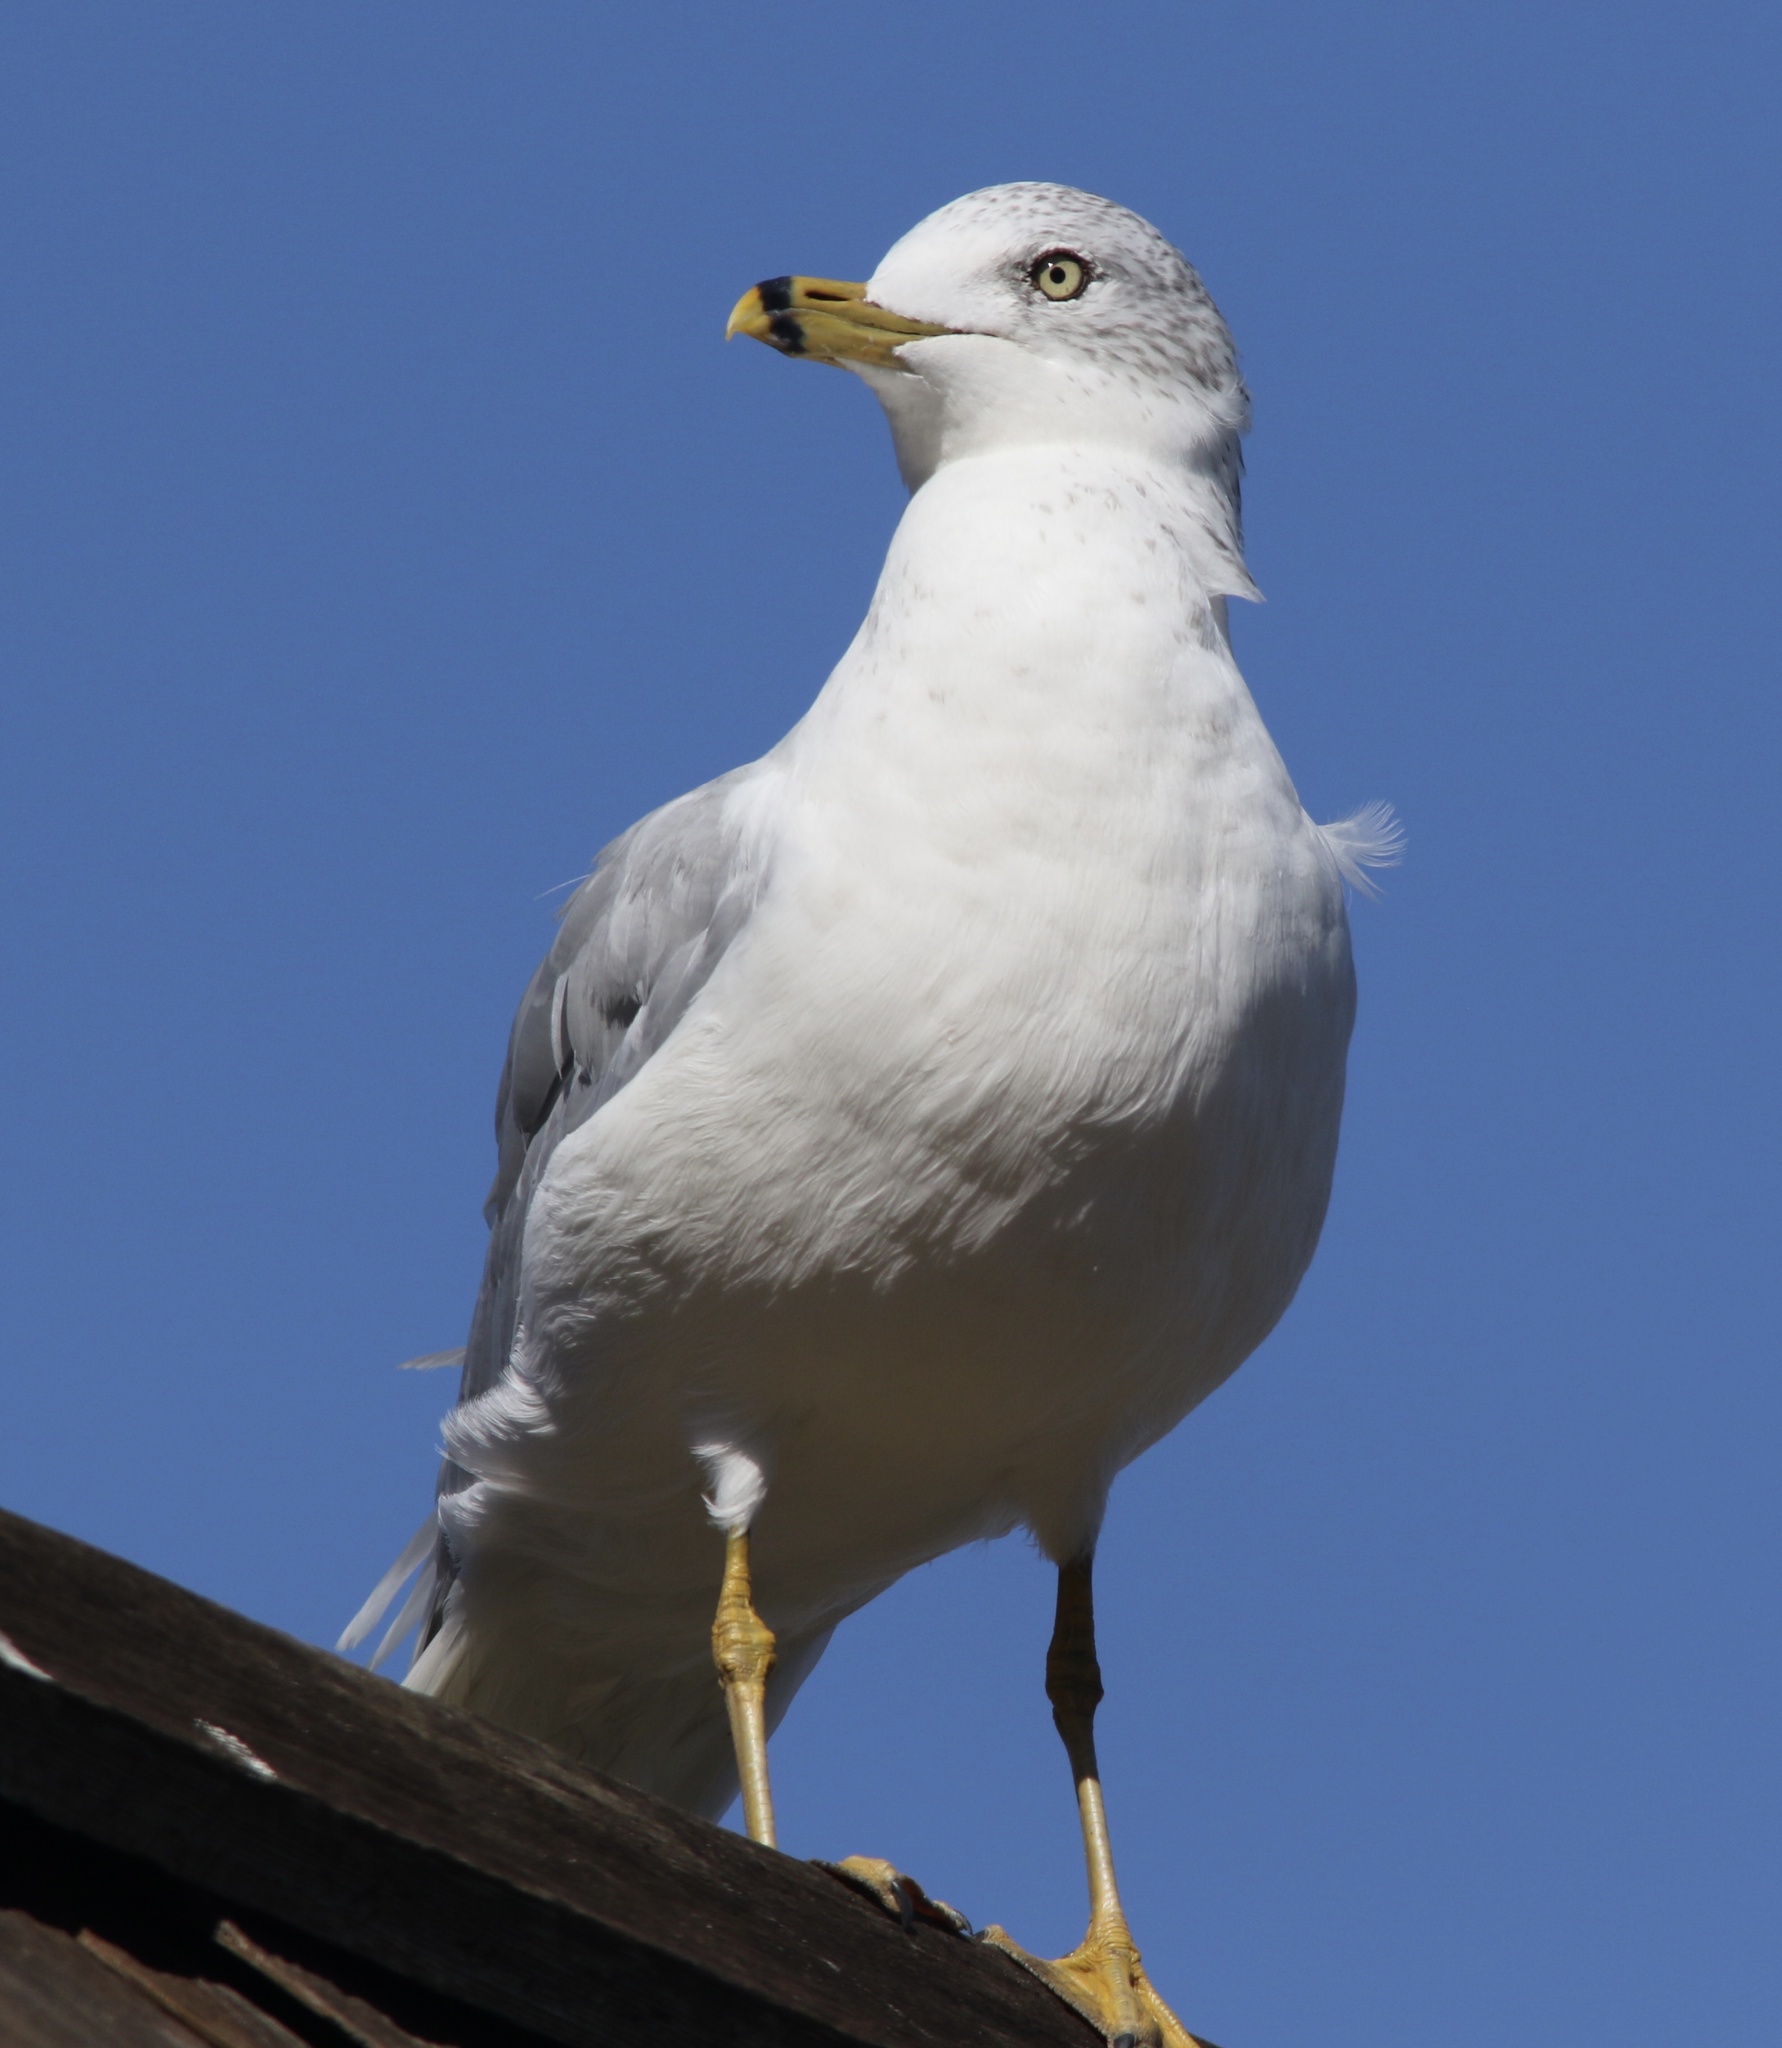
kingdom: Animalia
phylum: Chordata
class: Aves
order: Charadriiformes
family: Laridae
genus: Larus
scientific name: Larus delawarensis
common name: Ring-billed gull
